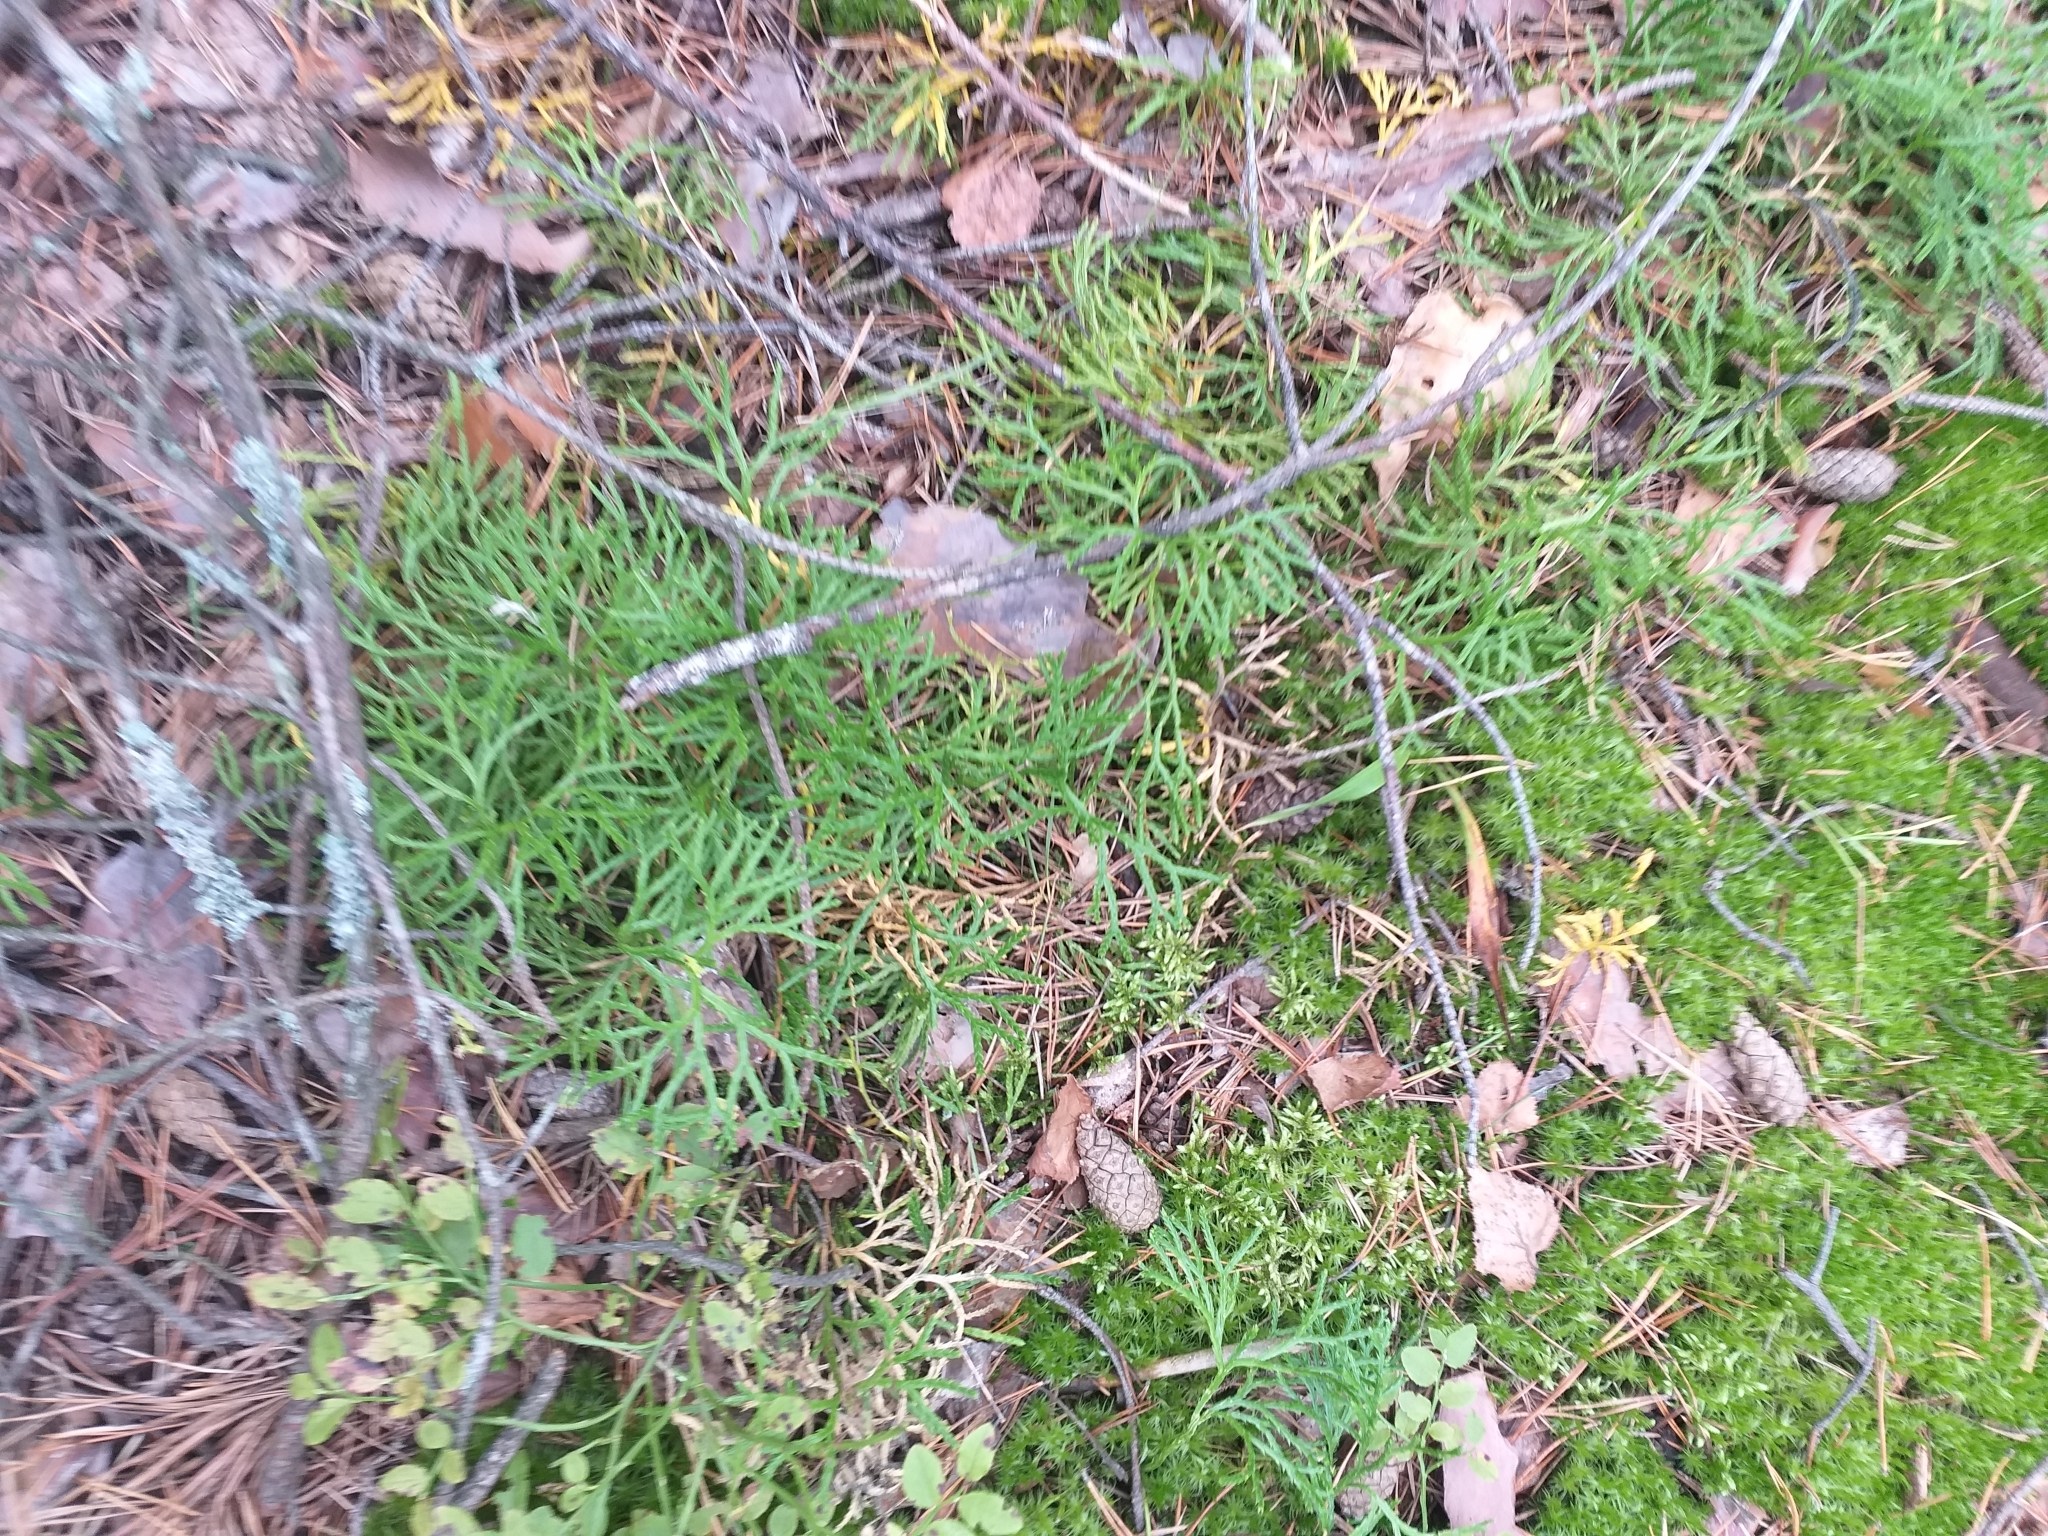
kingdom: Plantae
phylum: Tracheophyta
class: Lycopodiopsida
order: Lycopodiales
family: Lycopodiaceae
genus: Diphasiastrum
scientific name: Diphasiastrum complanatum
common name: Northern running-pine
